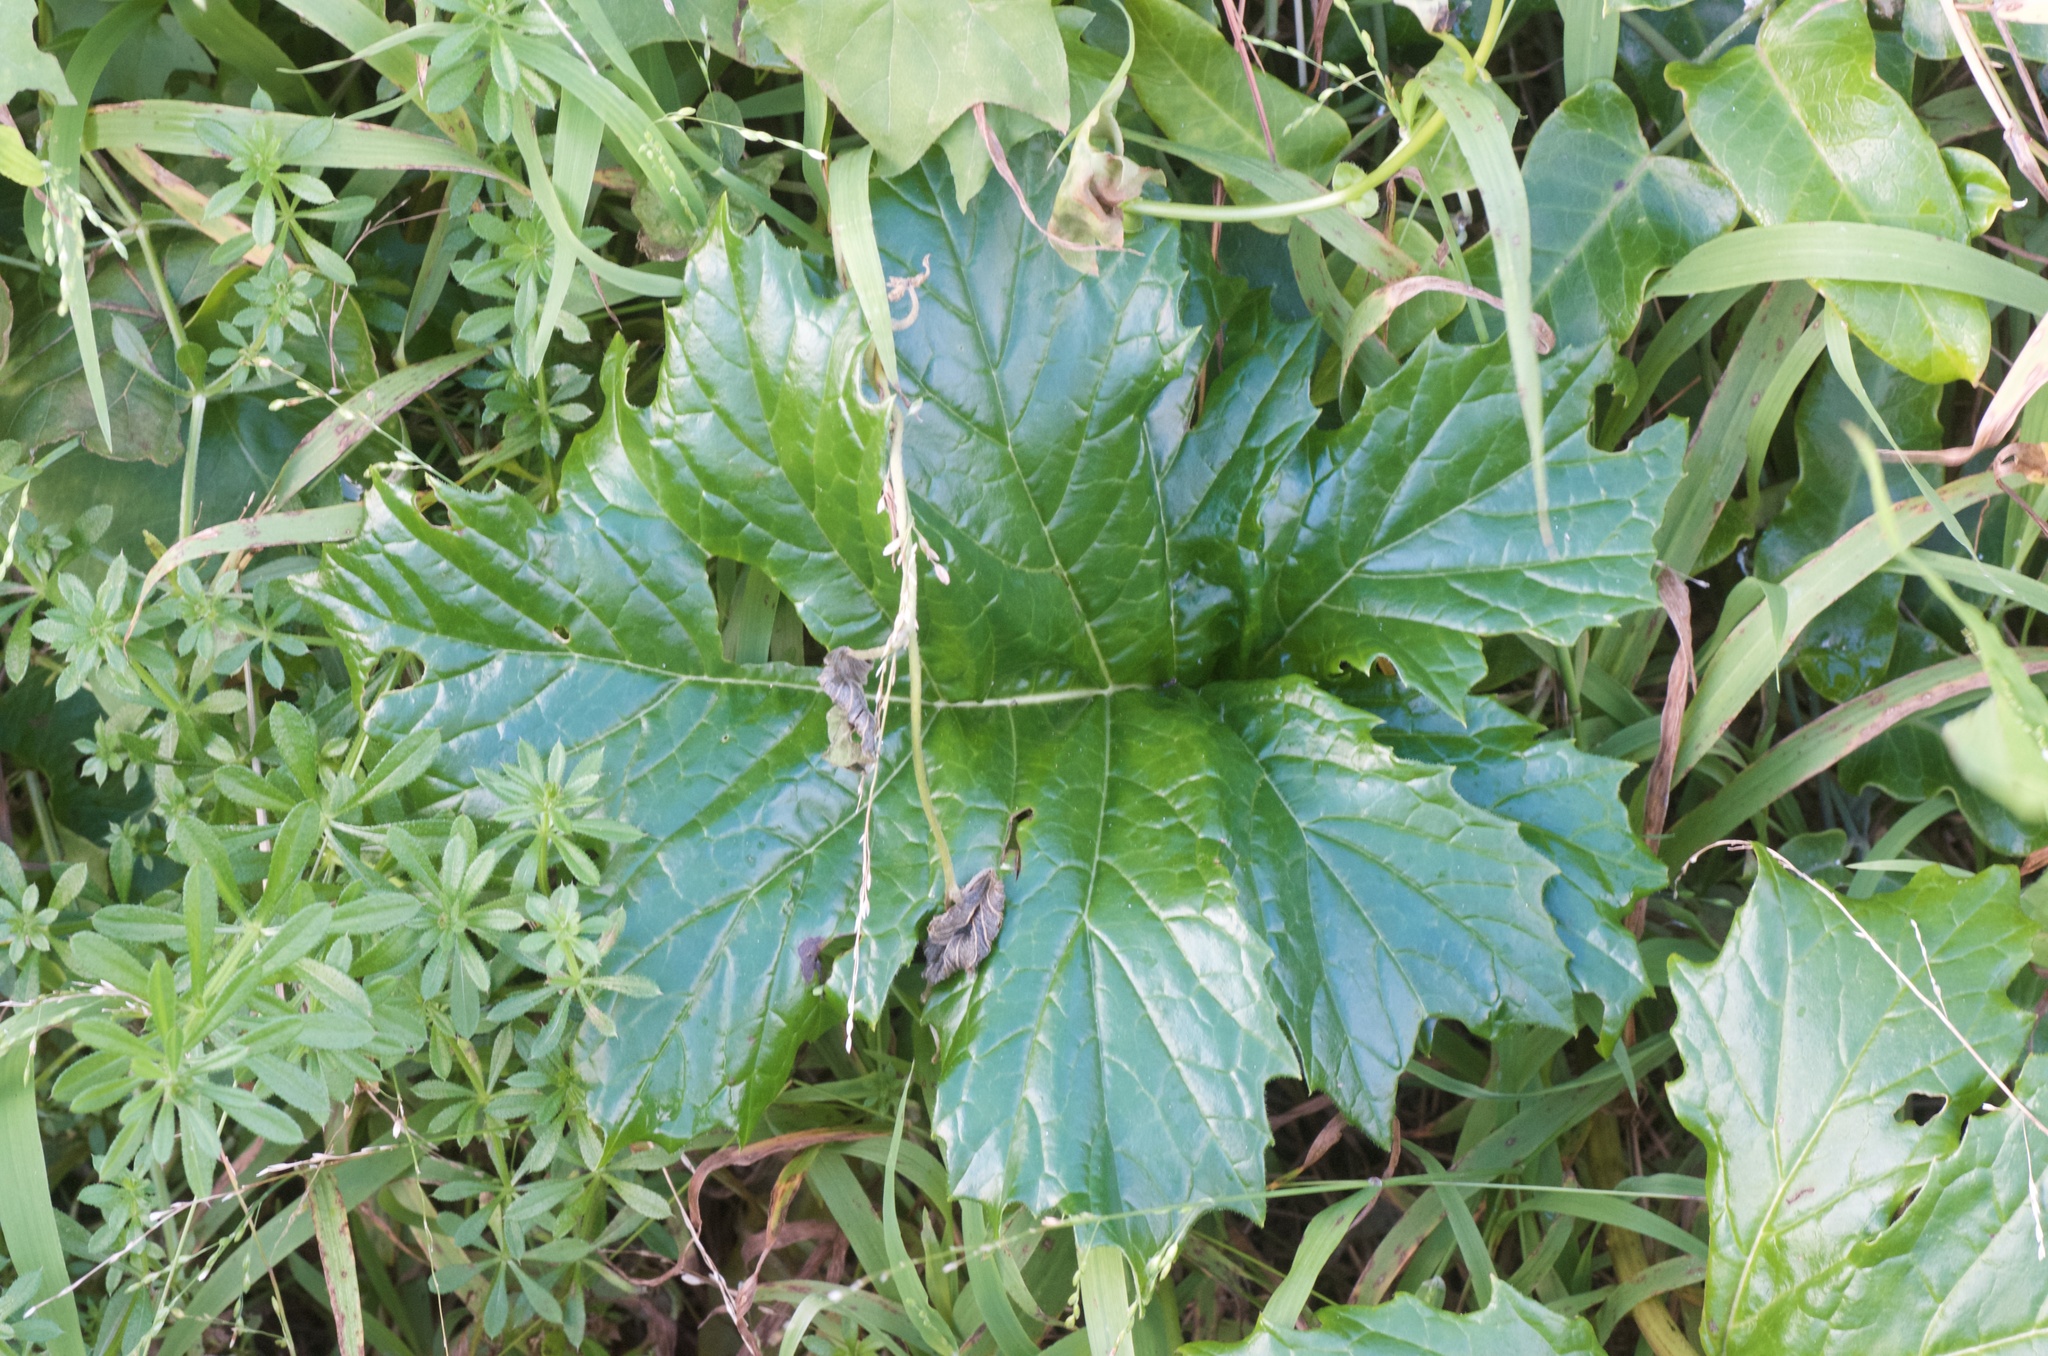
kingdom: Plantae
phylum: Tracheophyta
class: Magnoliopsida
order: Lamiales
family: Acanthaceae
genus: Acanthus
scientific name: Acanthus mollis
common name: Bear's-breech
